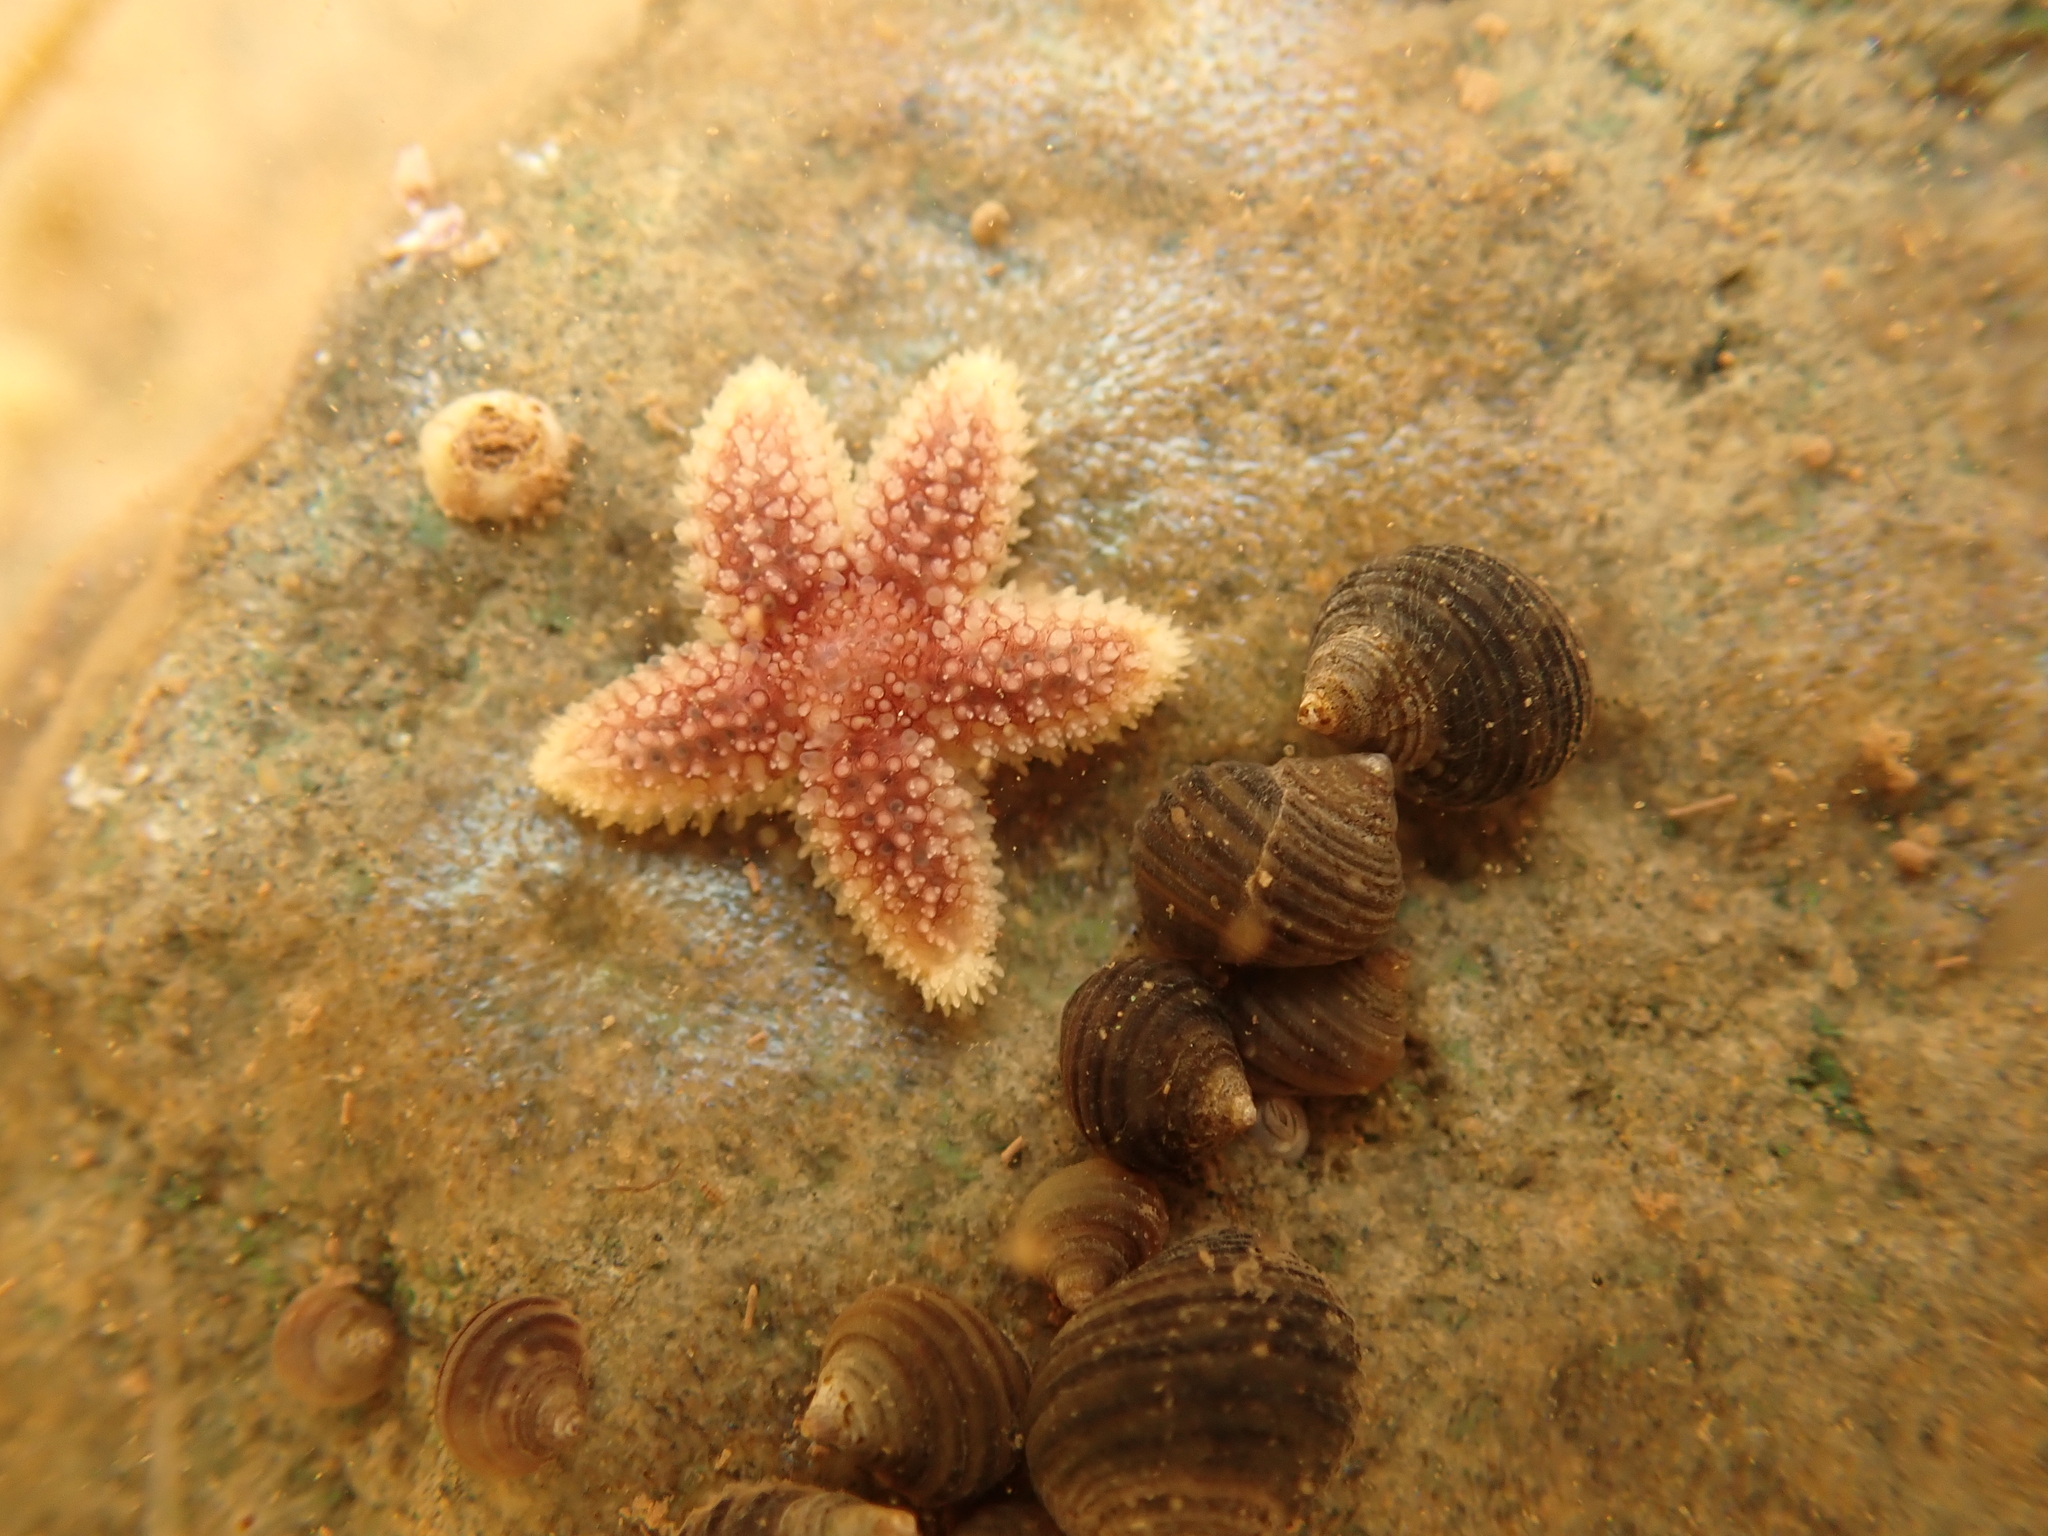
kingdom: Animalia
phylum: Echinodermata
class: Asteroidea
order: Forcipulatida
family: Asteriidae
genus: Asterias
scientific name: Asterias rubens
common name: Common starfish
